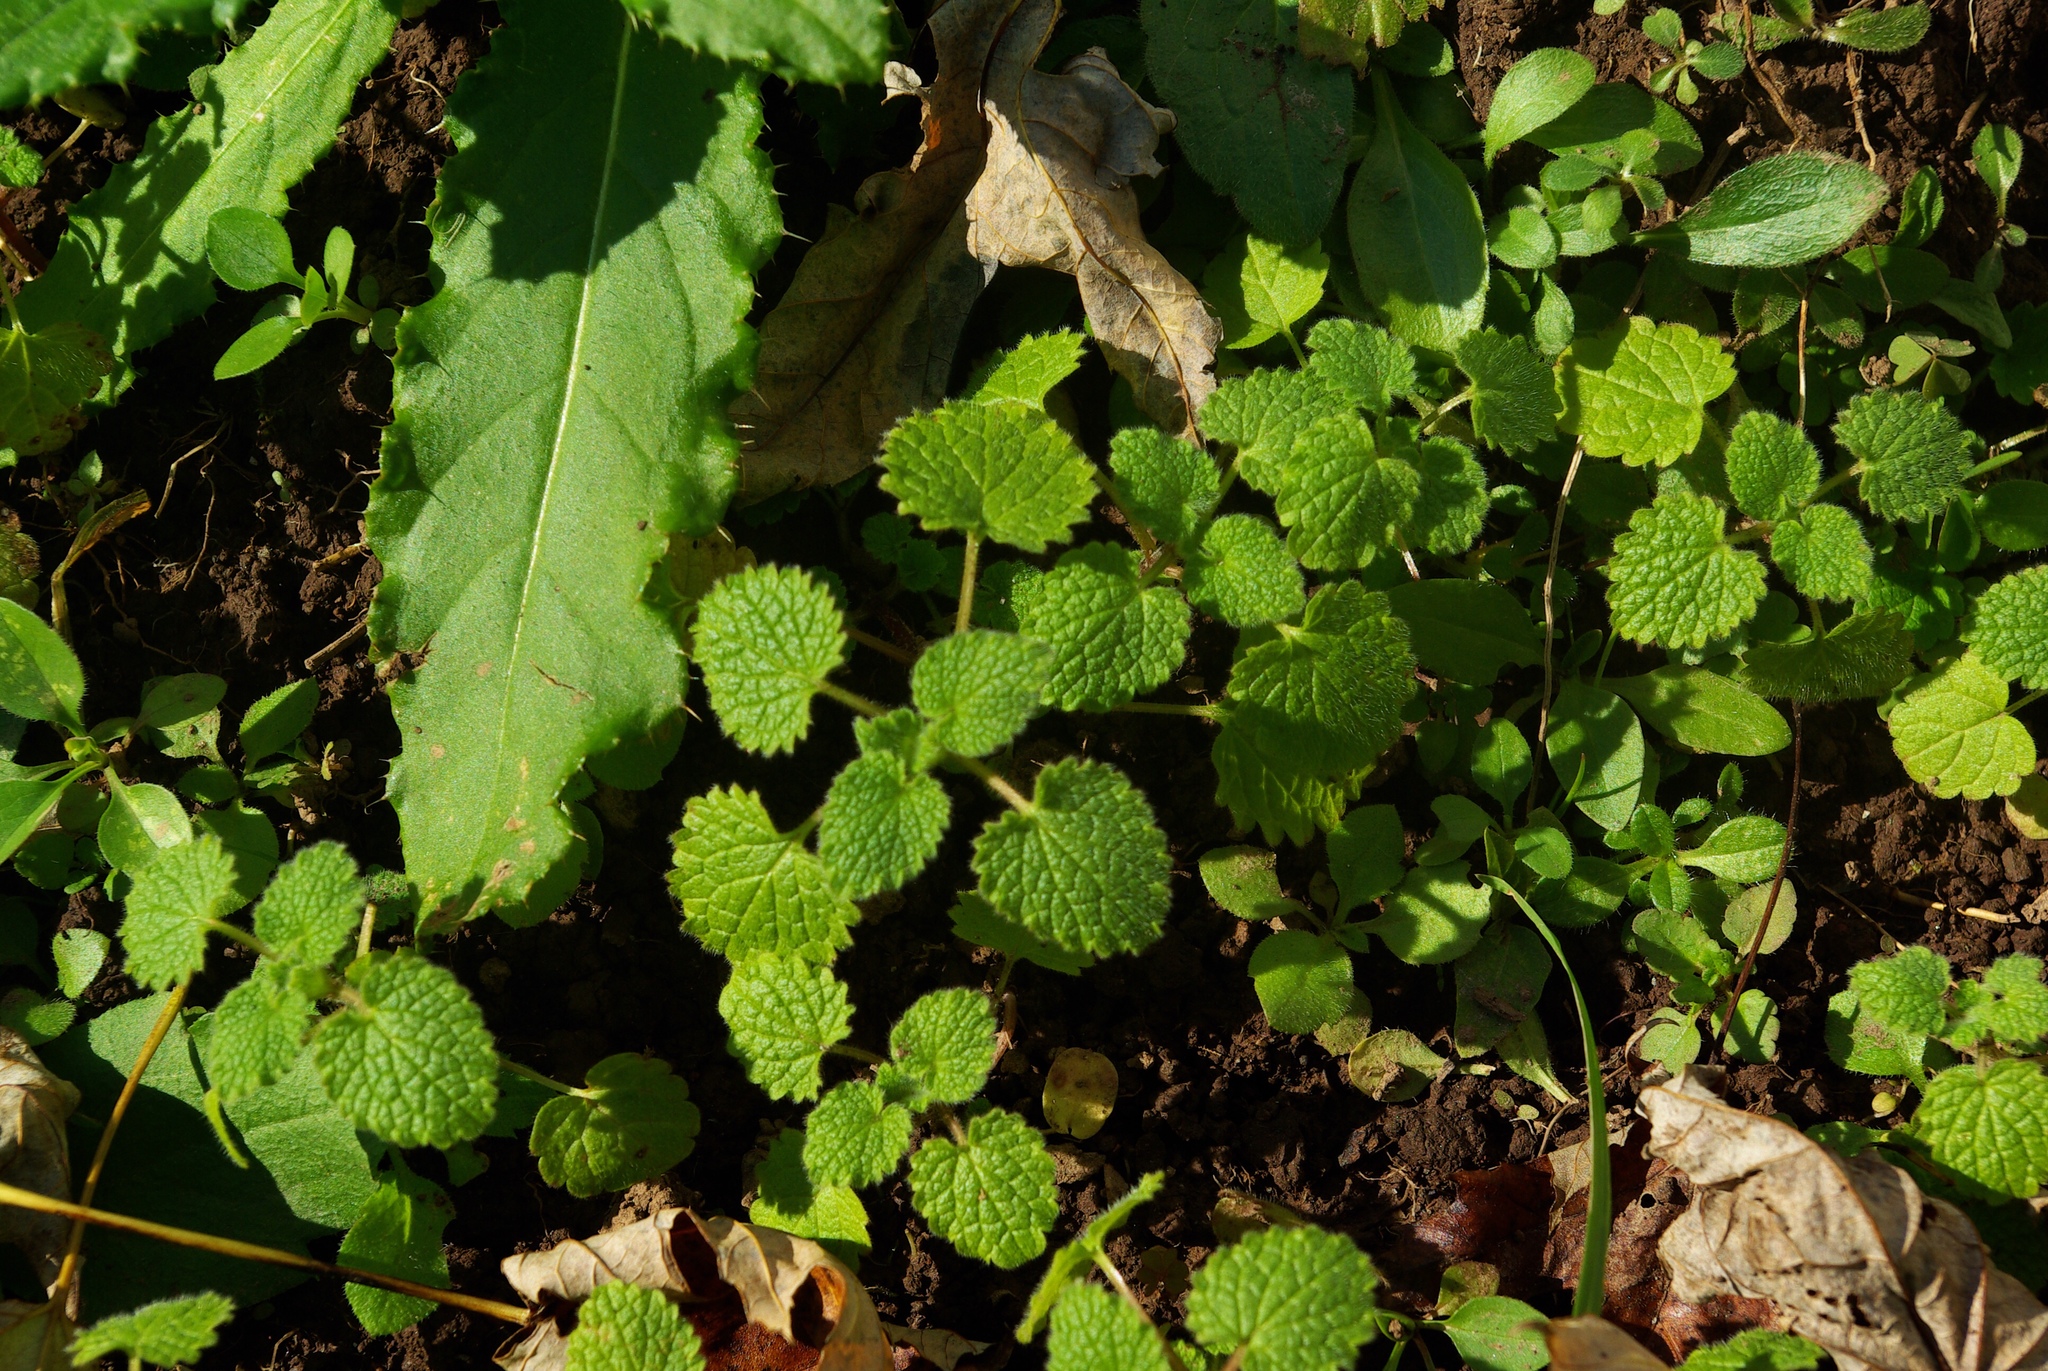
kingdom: Plantae
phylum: Tracheophyta
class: Magnoliopsida
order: Lamiales
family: Lamiaceae
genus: Lamium
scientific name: Lamium purpureum
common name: Red dead-nettle
